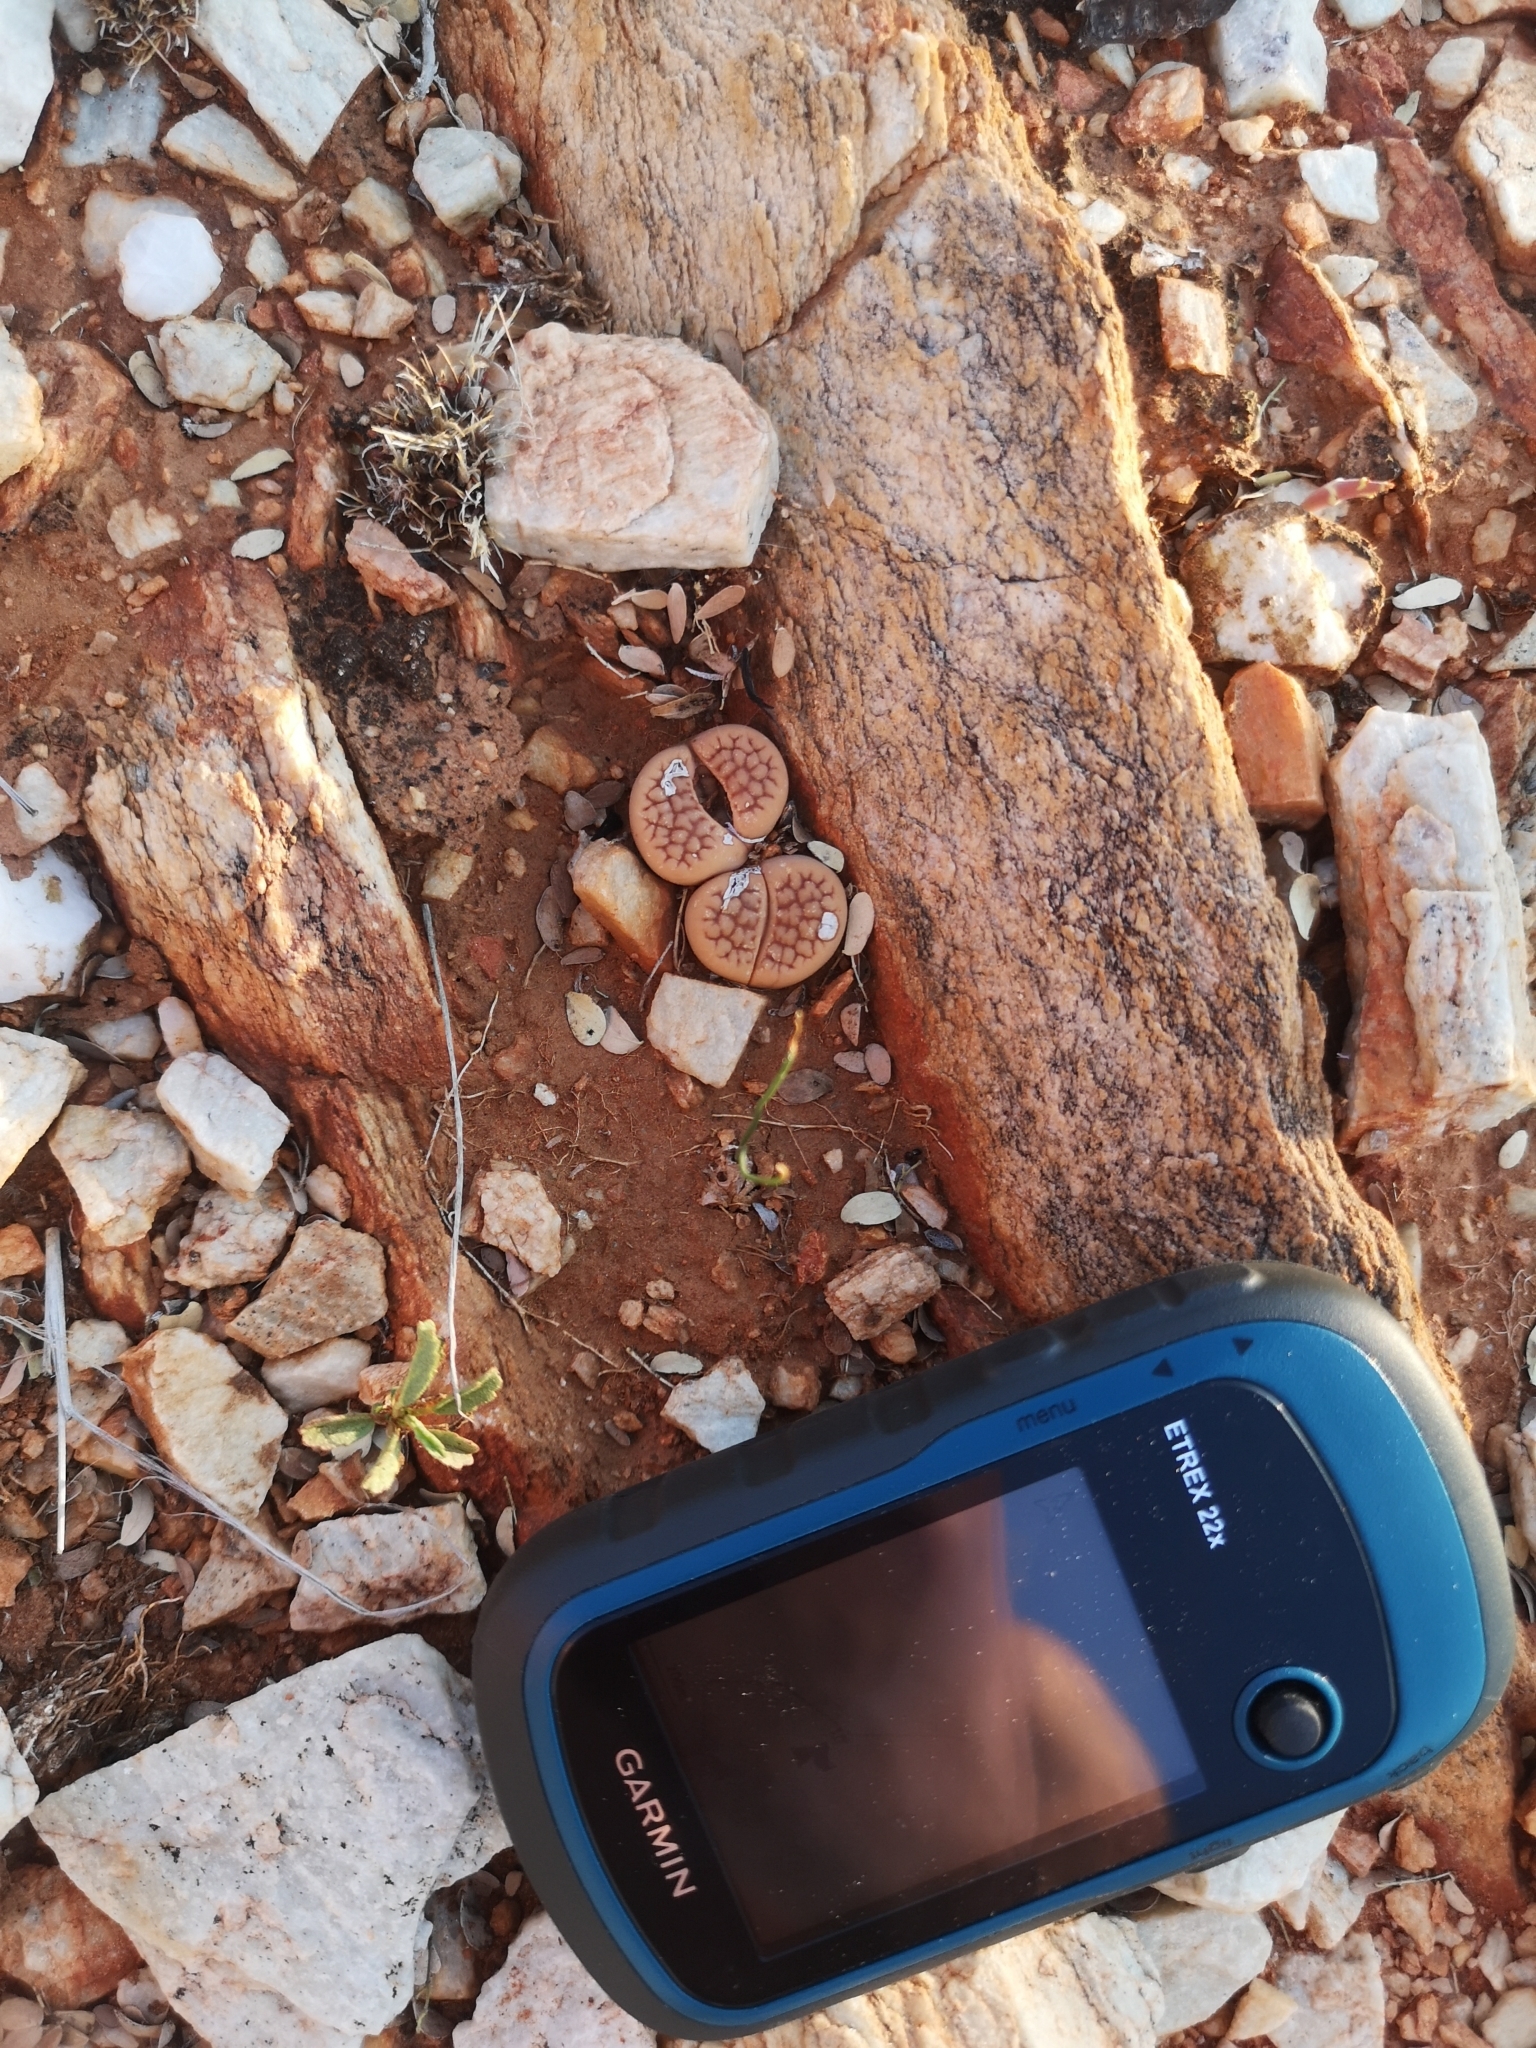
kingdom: Plantae
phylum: Tracheophyta
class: Magnoliopsida
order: Caryophyllales
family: Aizoaceae
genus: Lithops
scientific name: Lithops hookeri
